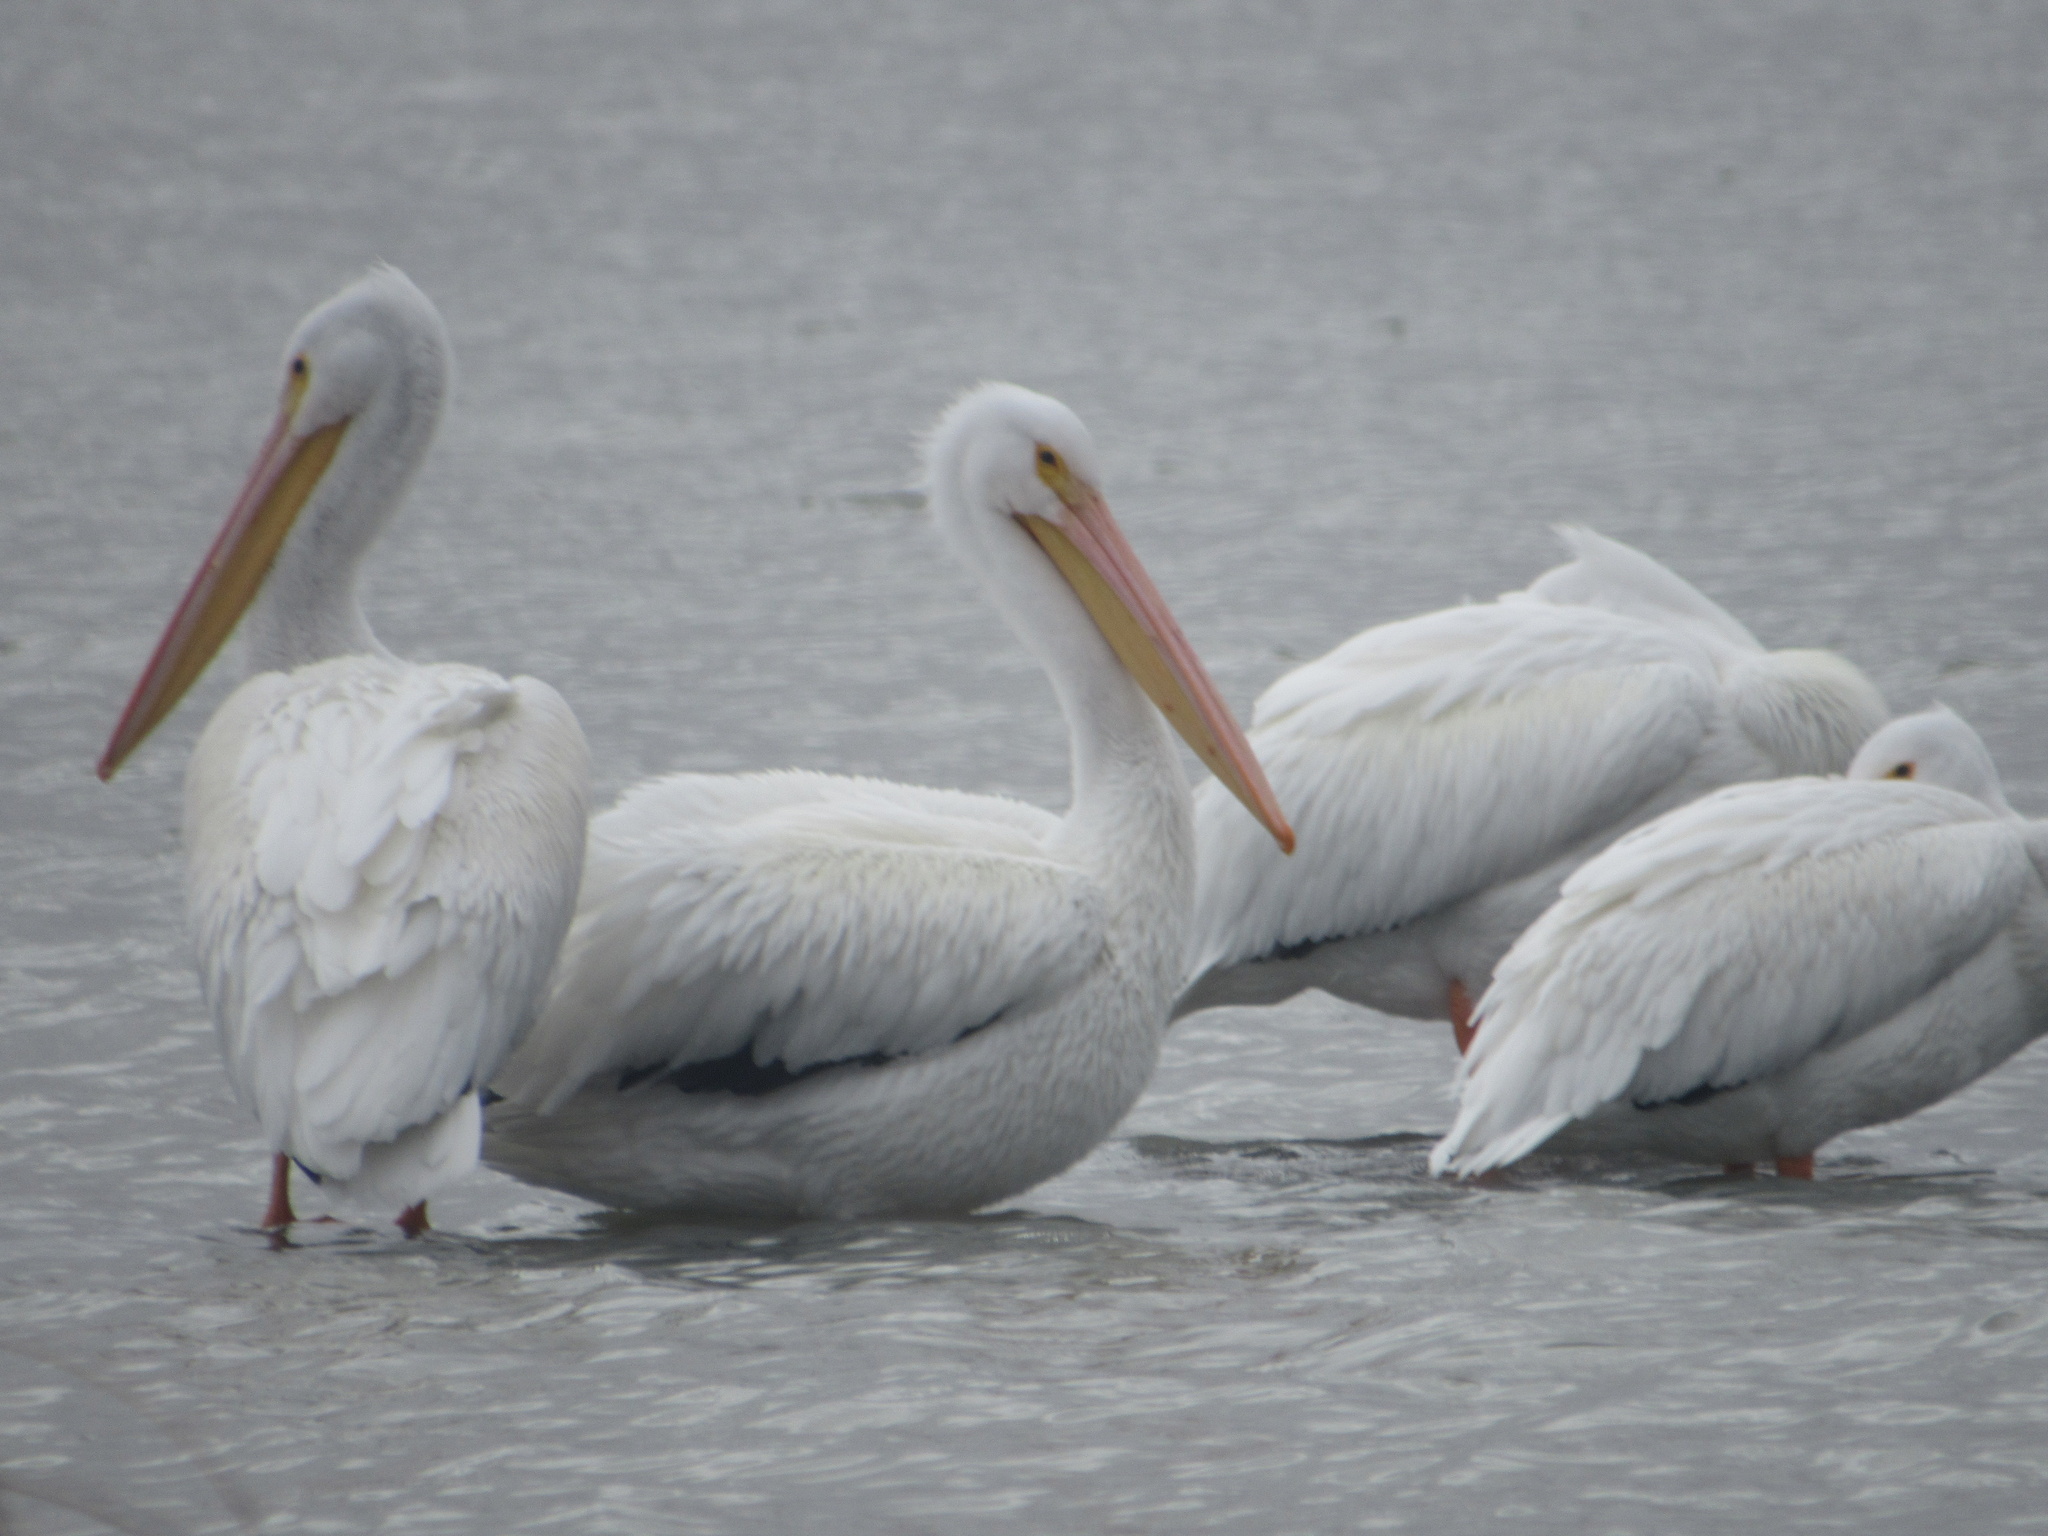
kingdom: Animalia
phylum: Chordata
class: Aves
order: Pelecaniformes
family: Pelecanidae
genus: Pelecanus
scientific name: Pelecanus erythrorhynchos
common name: American white pelican
